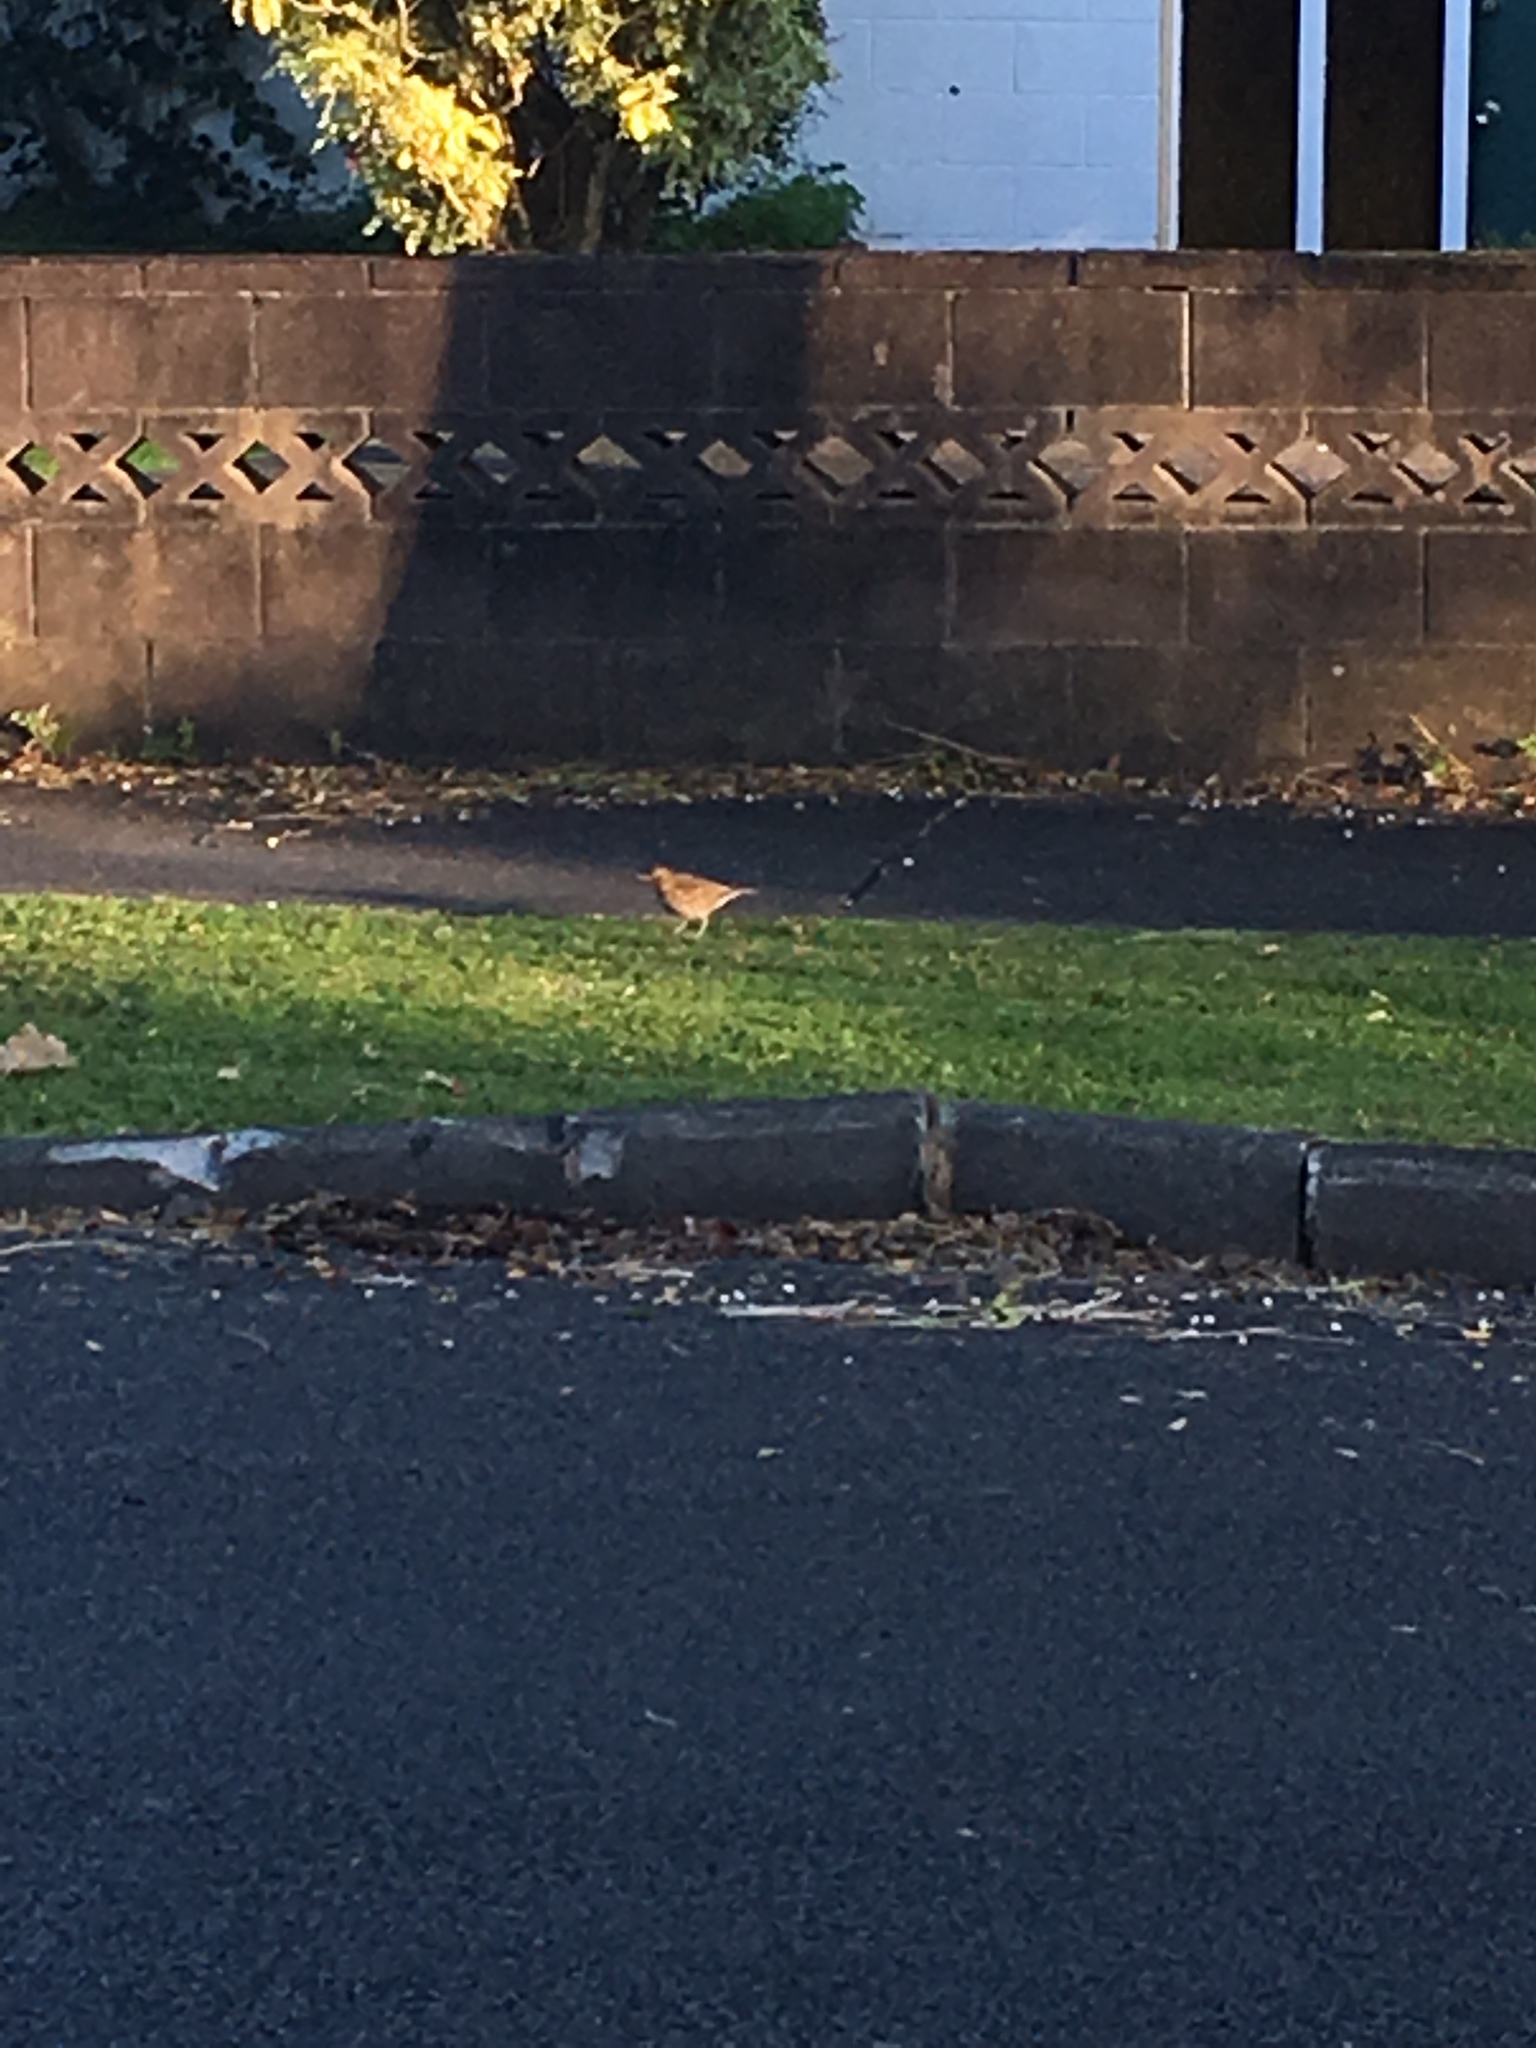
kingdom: Animalia
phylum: Chordata
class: Aves
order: Passeriformes
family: Turdidae
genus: Turdus
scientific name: Turdus philomelos
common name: Song thrush
